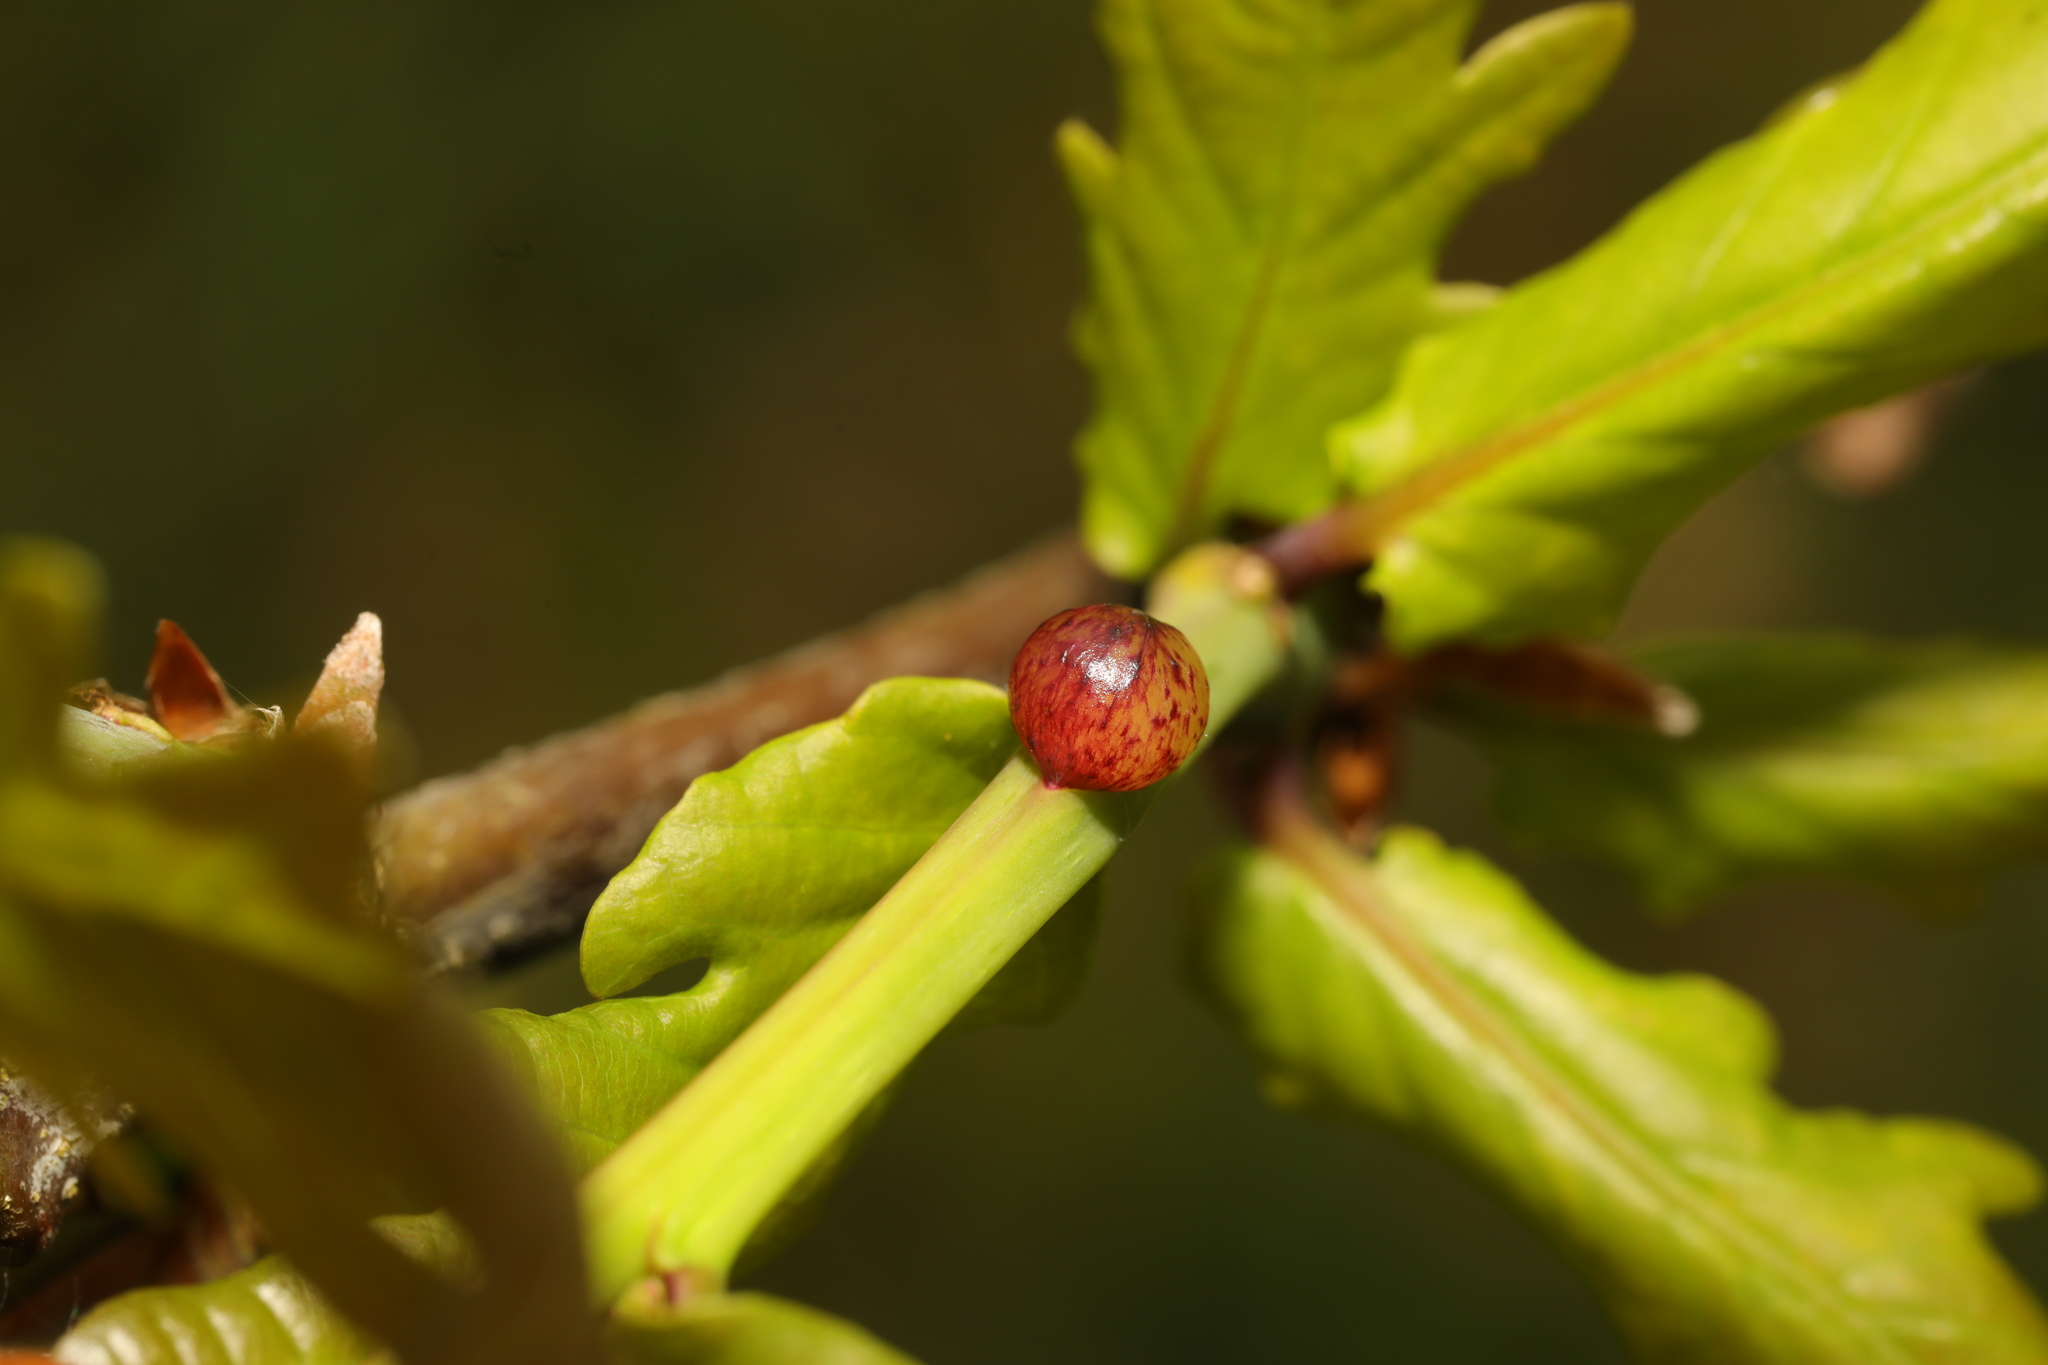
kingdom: Animalia
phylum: Arthropoda
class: Insecta
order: Hymenoptera
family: Cynipidae
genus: Neuroterus
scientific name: Neuroterus quercusbaccarum
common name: Common spangle gall
